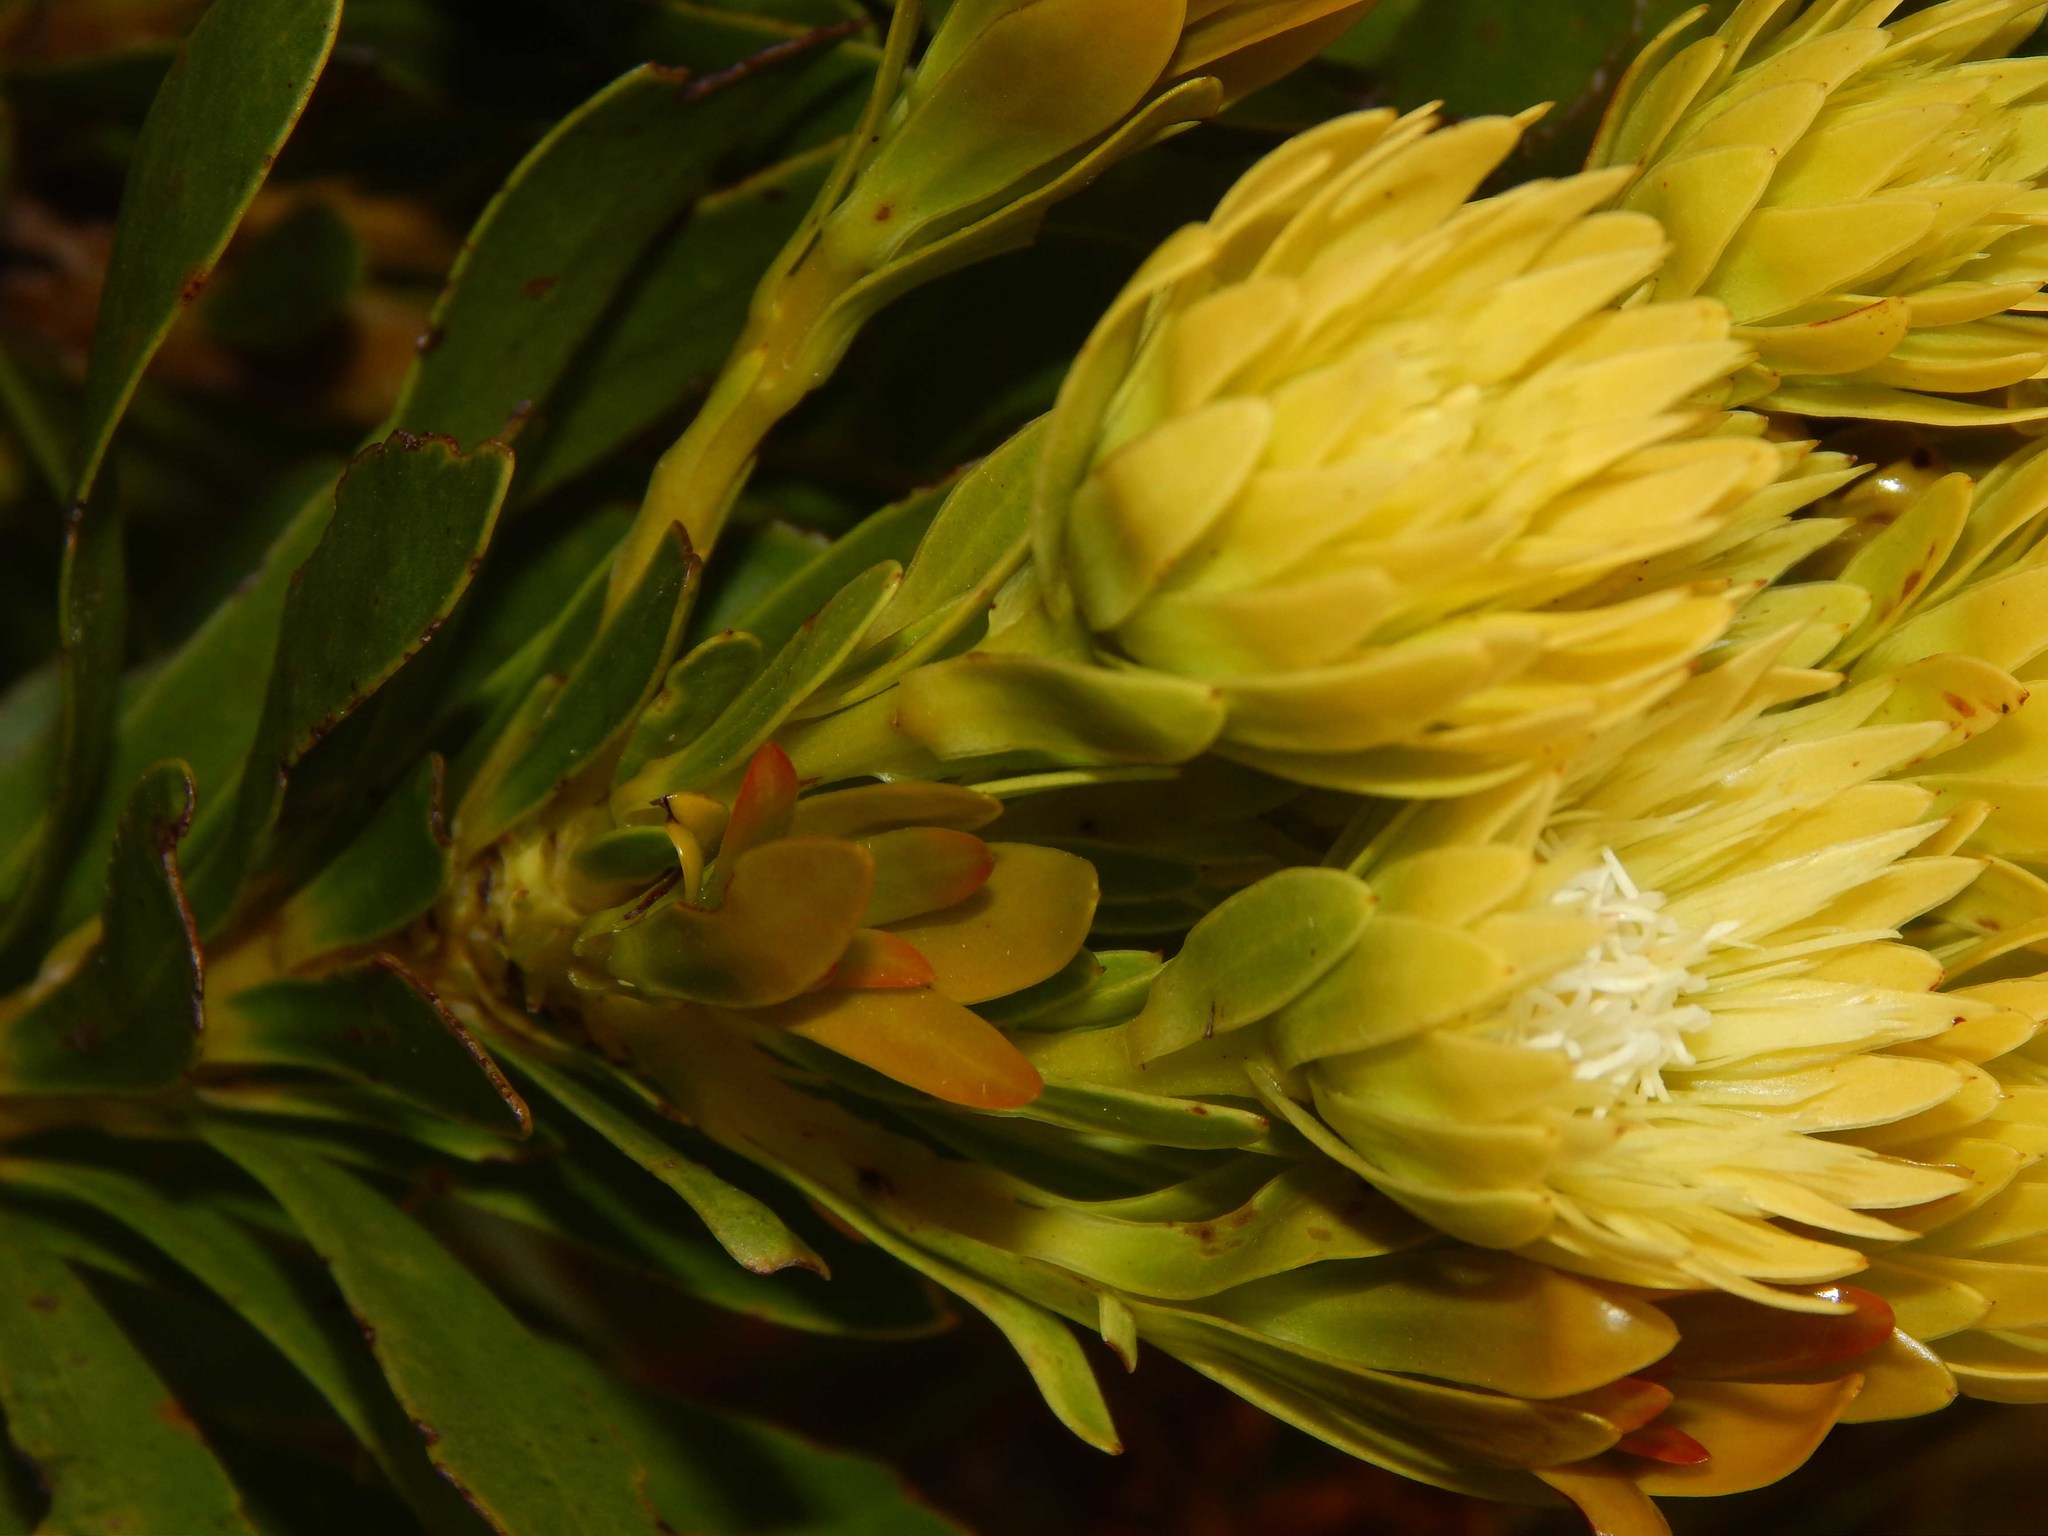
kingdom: Plantae
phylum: Tracheophyta
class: Magnoliopsida
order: Proteales
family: Proteaceae
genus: Aulax
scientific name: Aulax umbellata
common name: Broad-leaf featherbush
